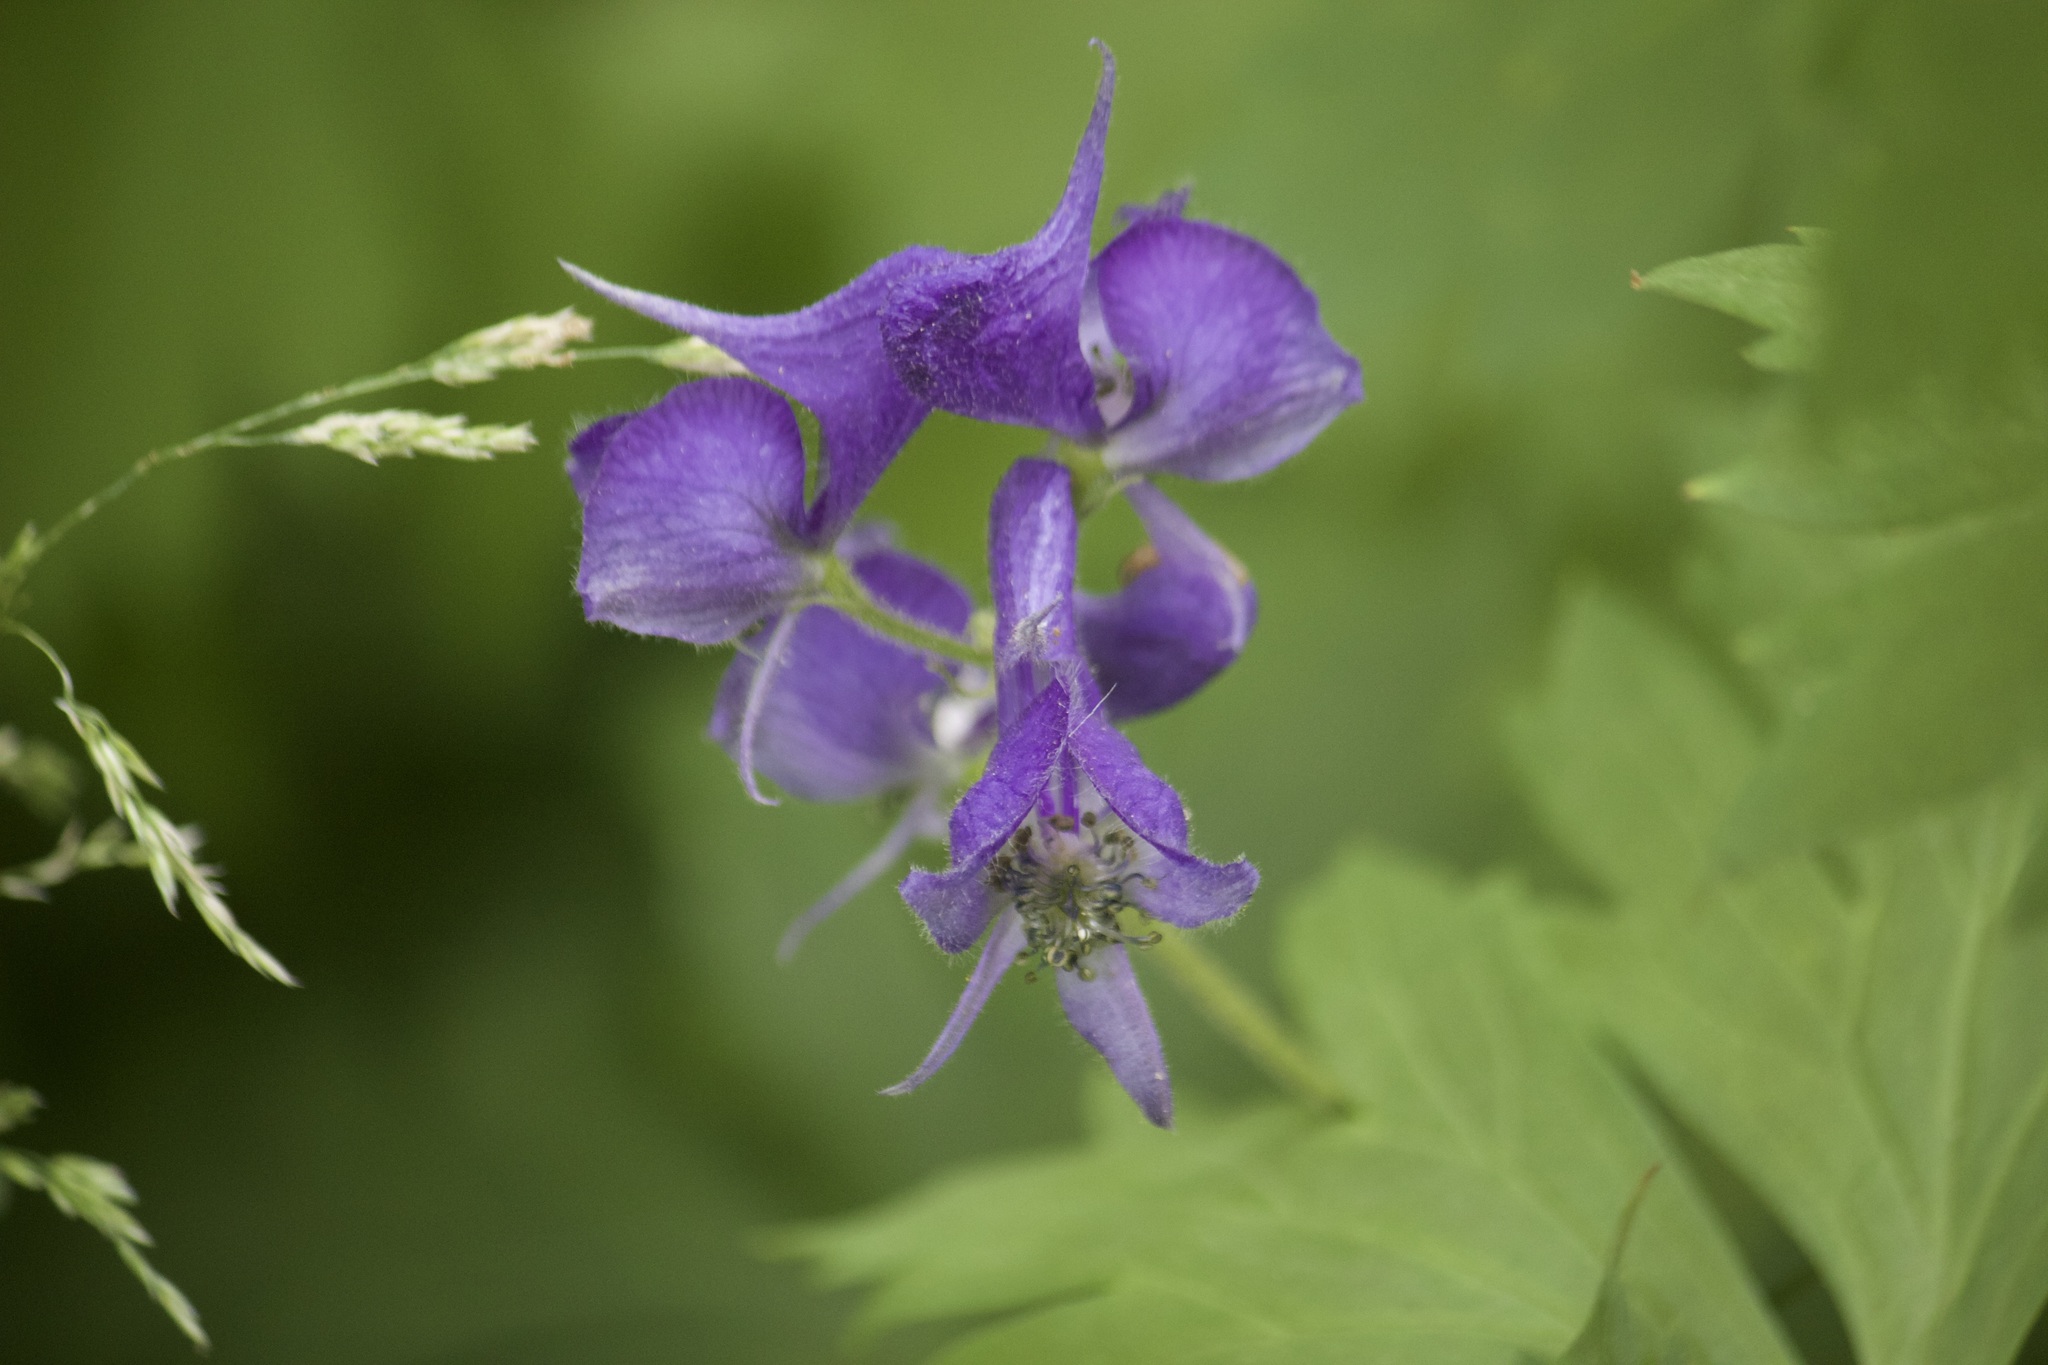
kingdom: Plantae
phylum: Tracheophyta
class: Magnoliopsida
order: Ranunculales
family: Ranunculaceae
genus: Aconitum
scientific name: Aconitum columbianum
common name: Columbia aconite
